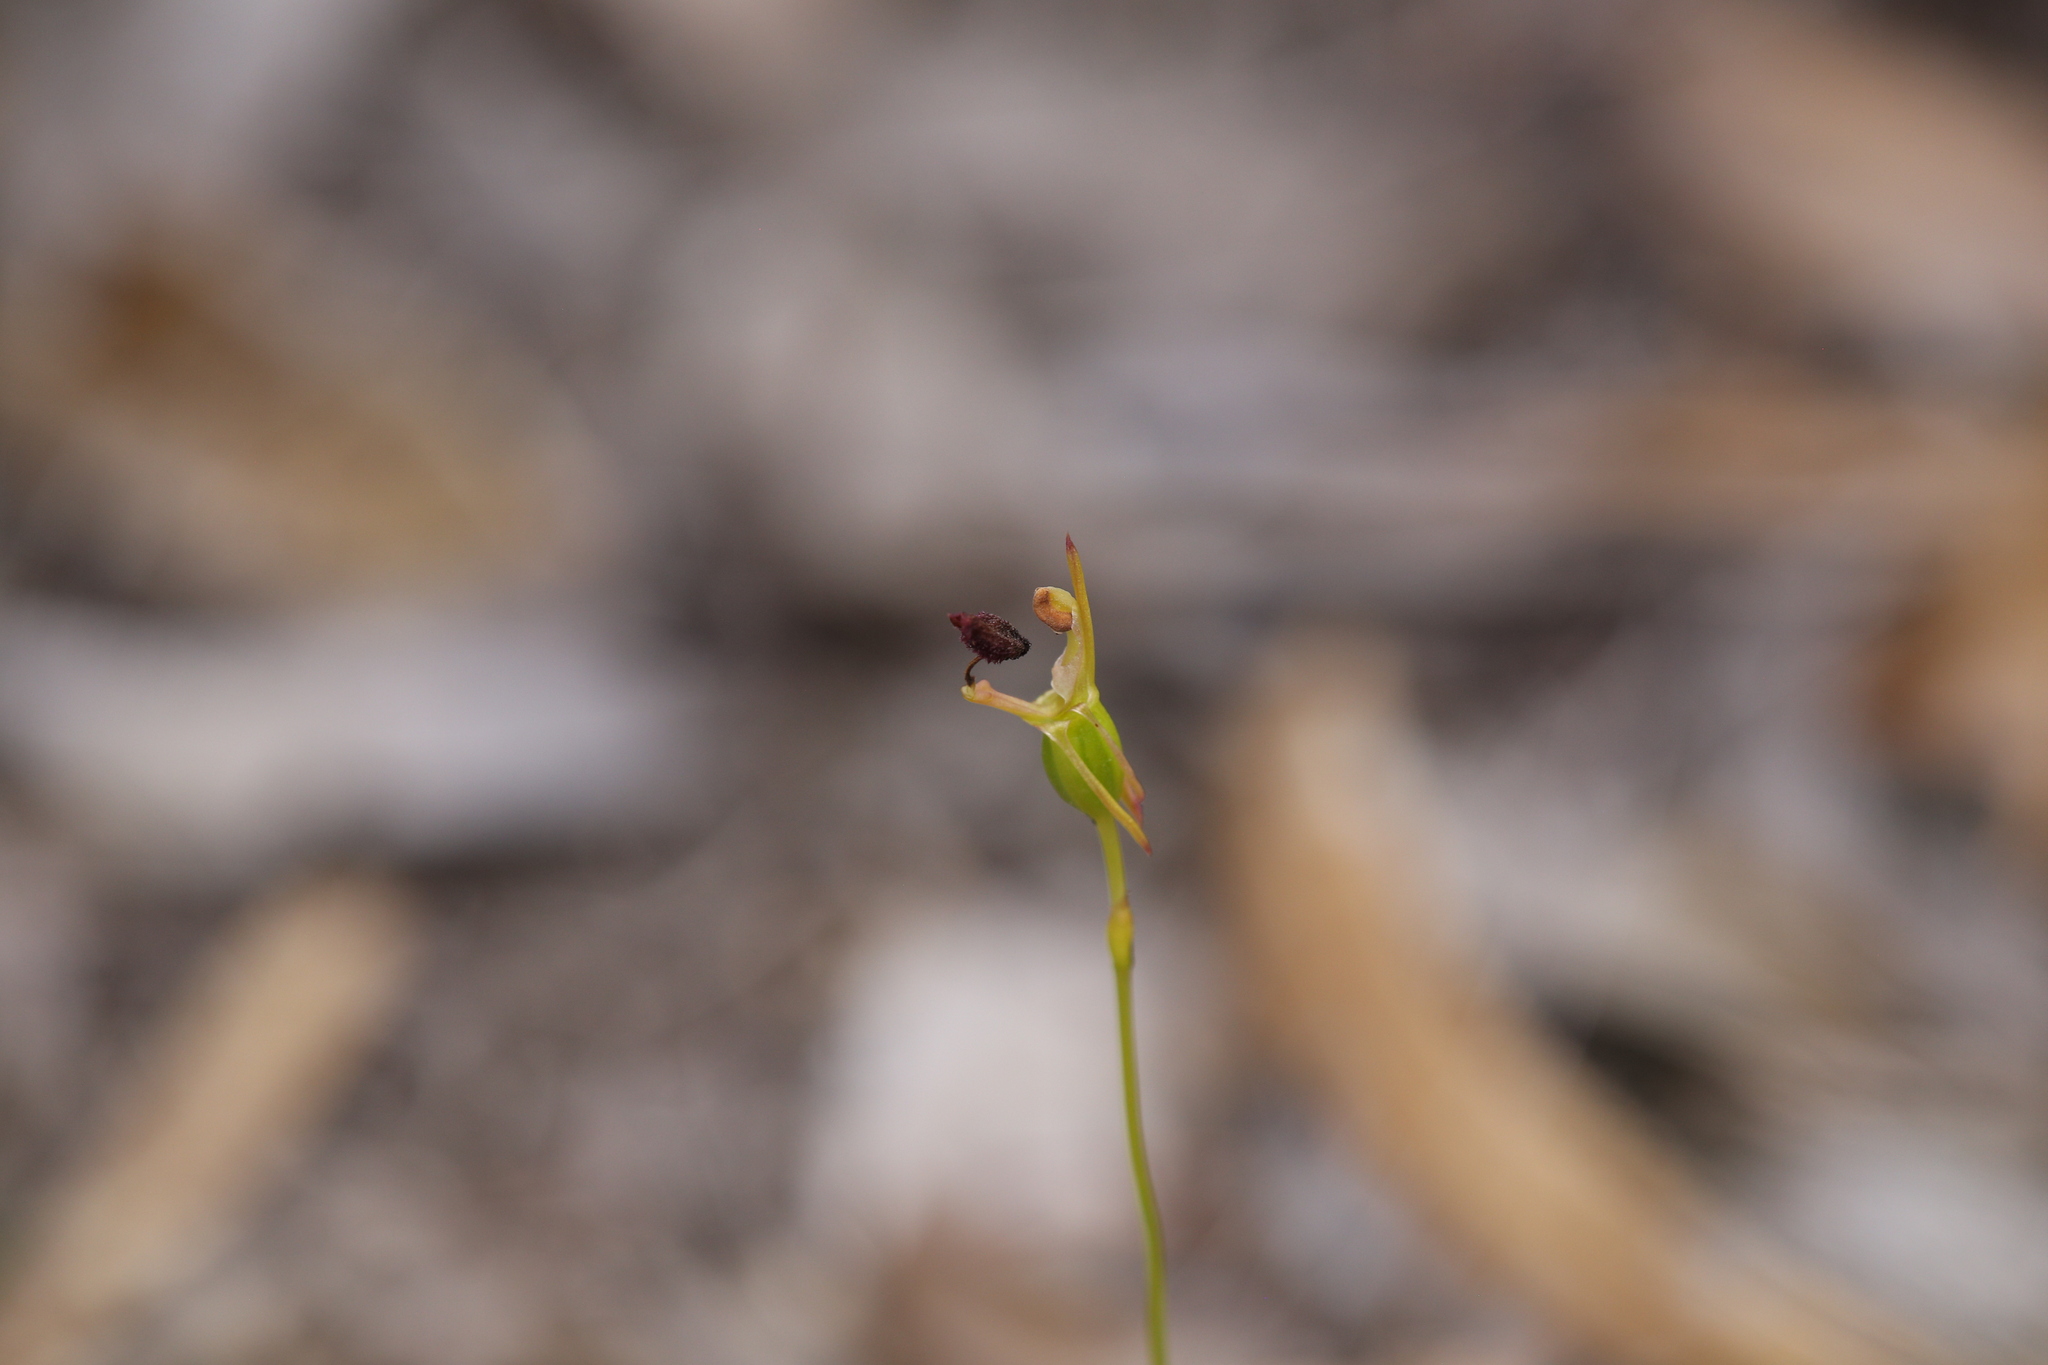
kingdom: Plantae
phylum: Tracheophyta
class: Liliopsida
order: Asparagales
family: Orchidaceae
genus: Drakaea
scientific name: Drakaea glyptodon
